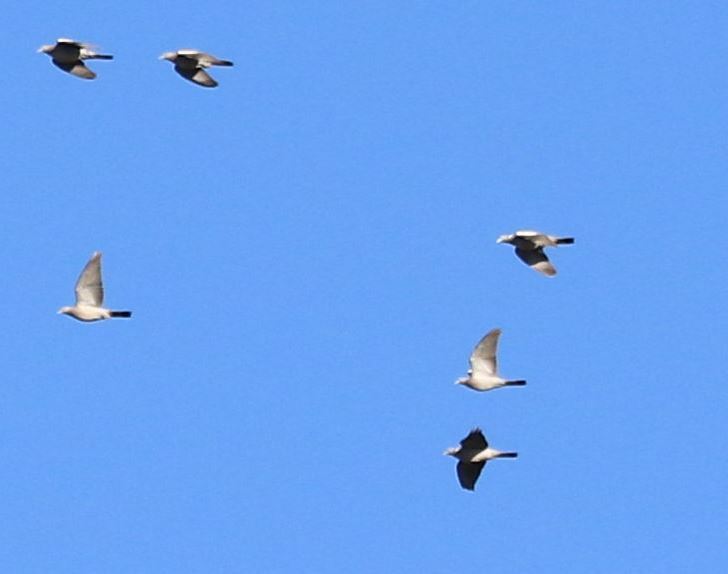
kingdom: Animalia
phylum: Chordata
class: Aves
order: Columbiformes
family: Columbidae
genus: Columba
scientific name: Columba palumbus
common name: Common wood pigeon
